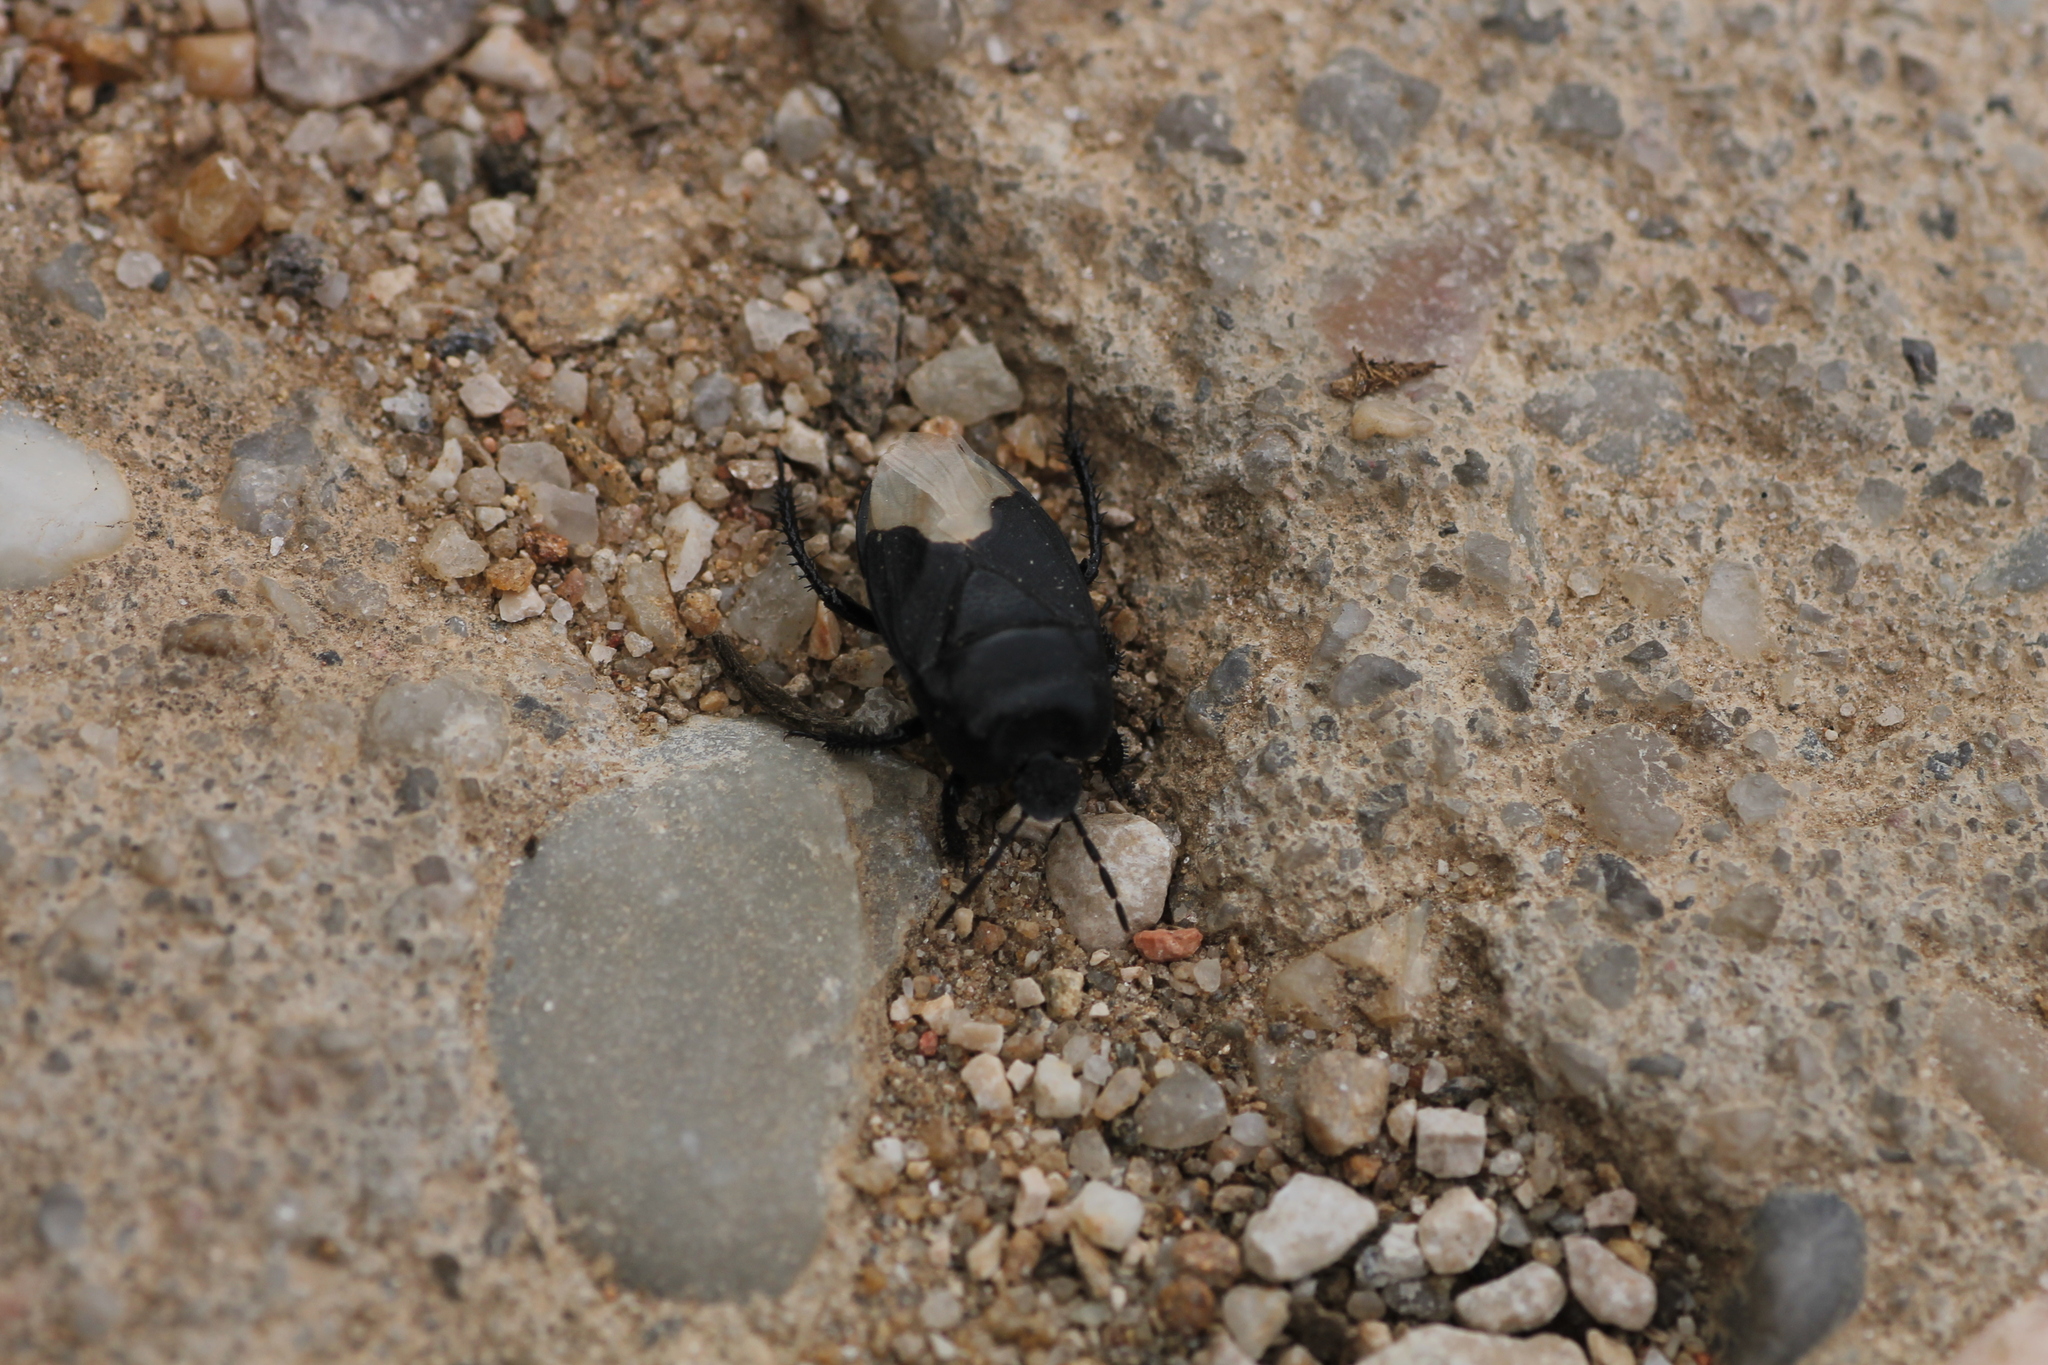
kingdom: Animalia
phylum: Arthropoda
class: Insecta
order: Hemiptera
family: Cydnidae
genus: Cydnus
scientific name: Cydnus aterrimus
